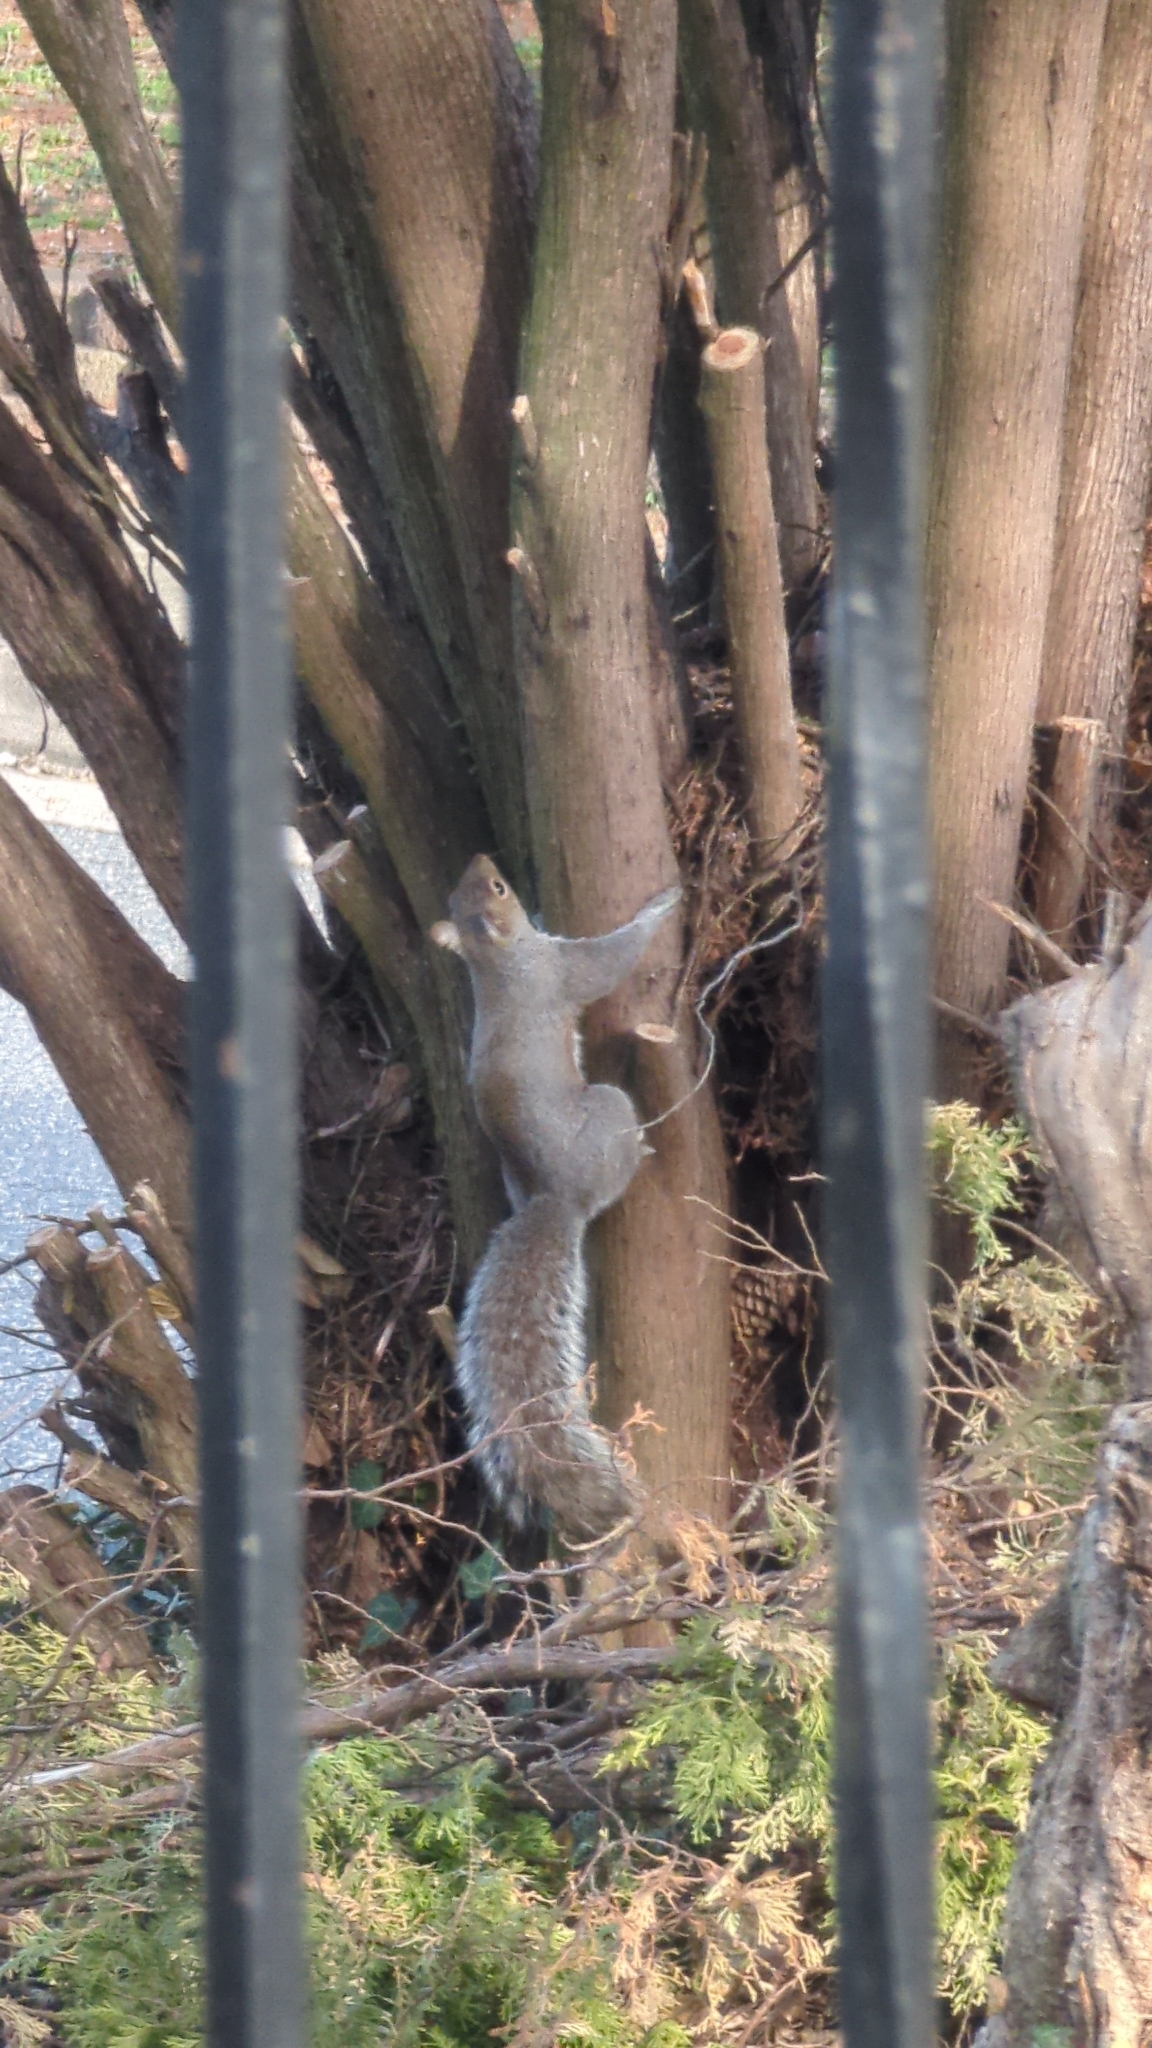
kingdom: Animalia
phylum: Chordata
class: Mammalia
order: Rodentia
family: Sciuridae
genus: Sciurus
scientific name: Sciurus carolinensis
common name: Eastern gray squirrel
